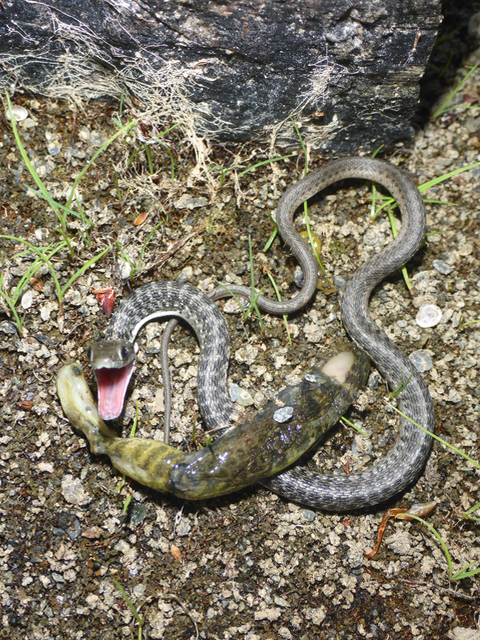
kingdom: Animalia
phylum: Chordata
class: Squamata
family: Colubridae
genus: Thamnophis
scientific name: Thamnophis atratus
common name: Pacific coast aquatic garter snake
